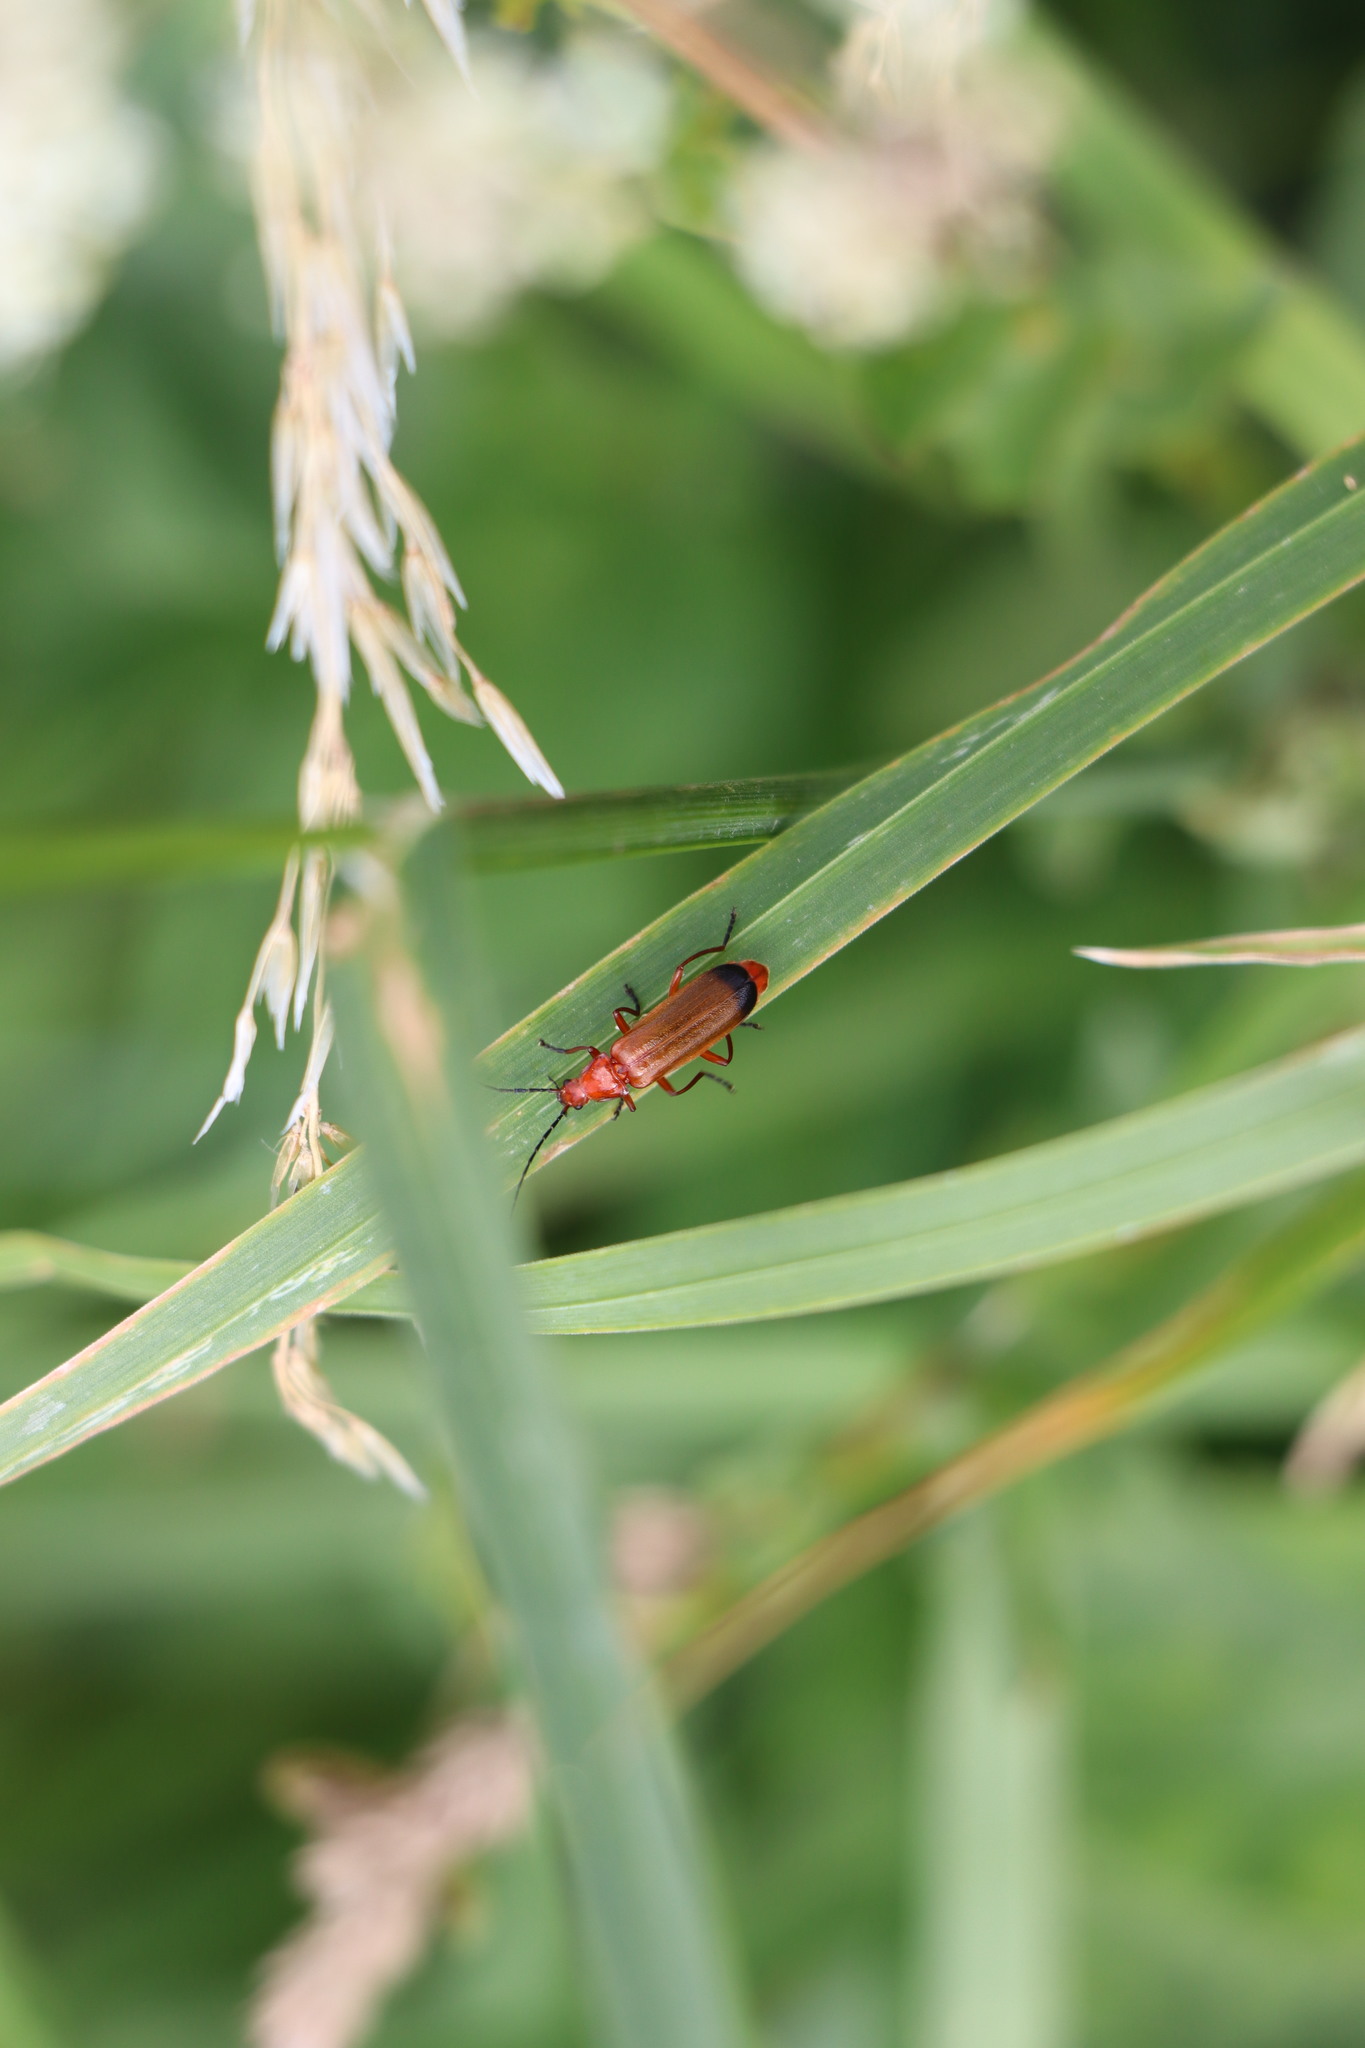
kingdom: Animalia
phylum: Arthropoda
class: Insecta
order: Coleoptera
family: Cantharidae
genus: Rhagonycha
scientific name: Rhagonycha fulva
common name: Common red soldier beetle
